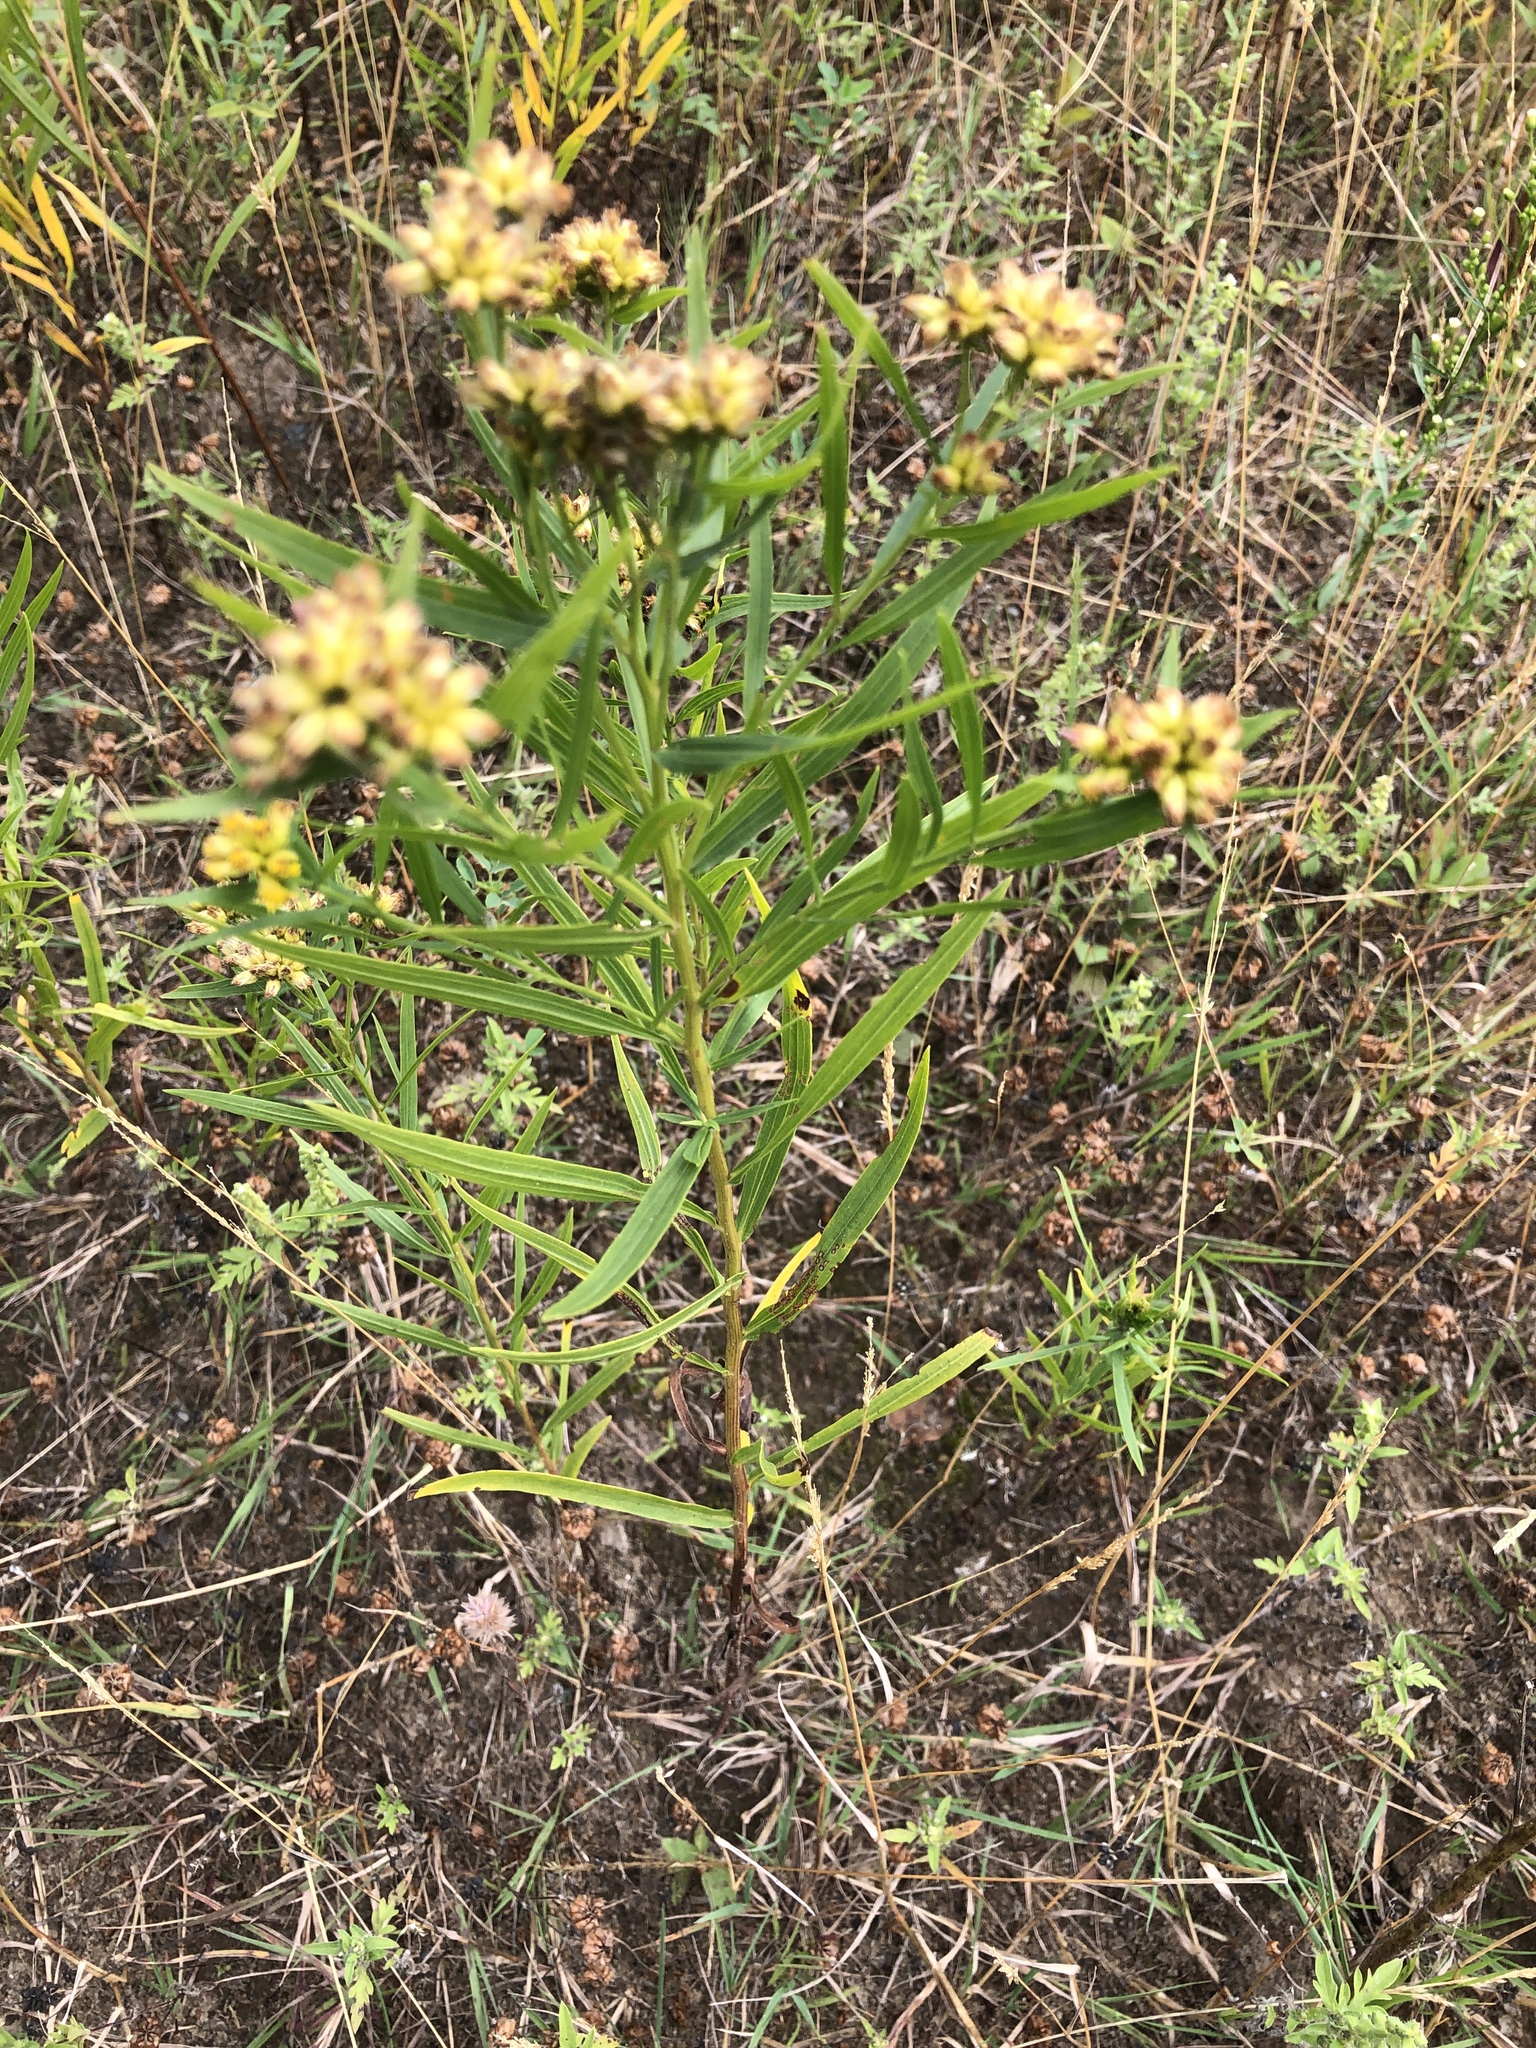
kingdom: Plantae
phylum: Tracheophyta
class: Magnoliopsida
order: Asterales
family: Asteraceae
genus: Euthamia
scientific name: Euthamia graminifolia
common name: Common goldentop
